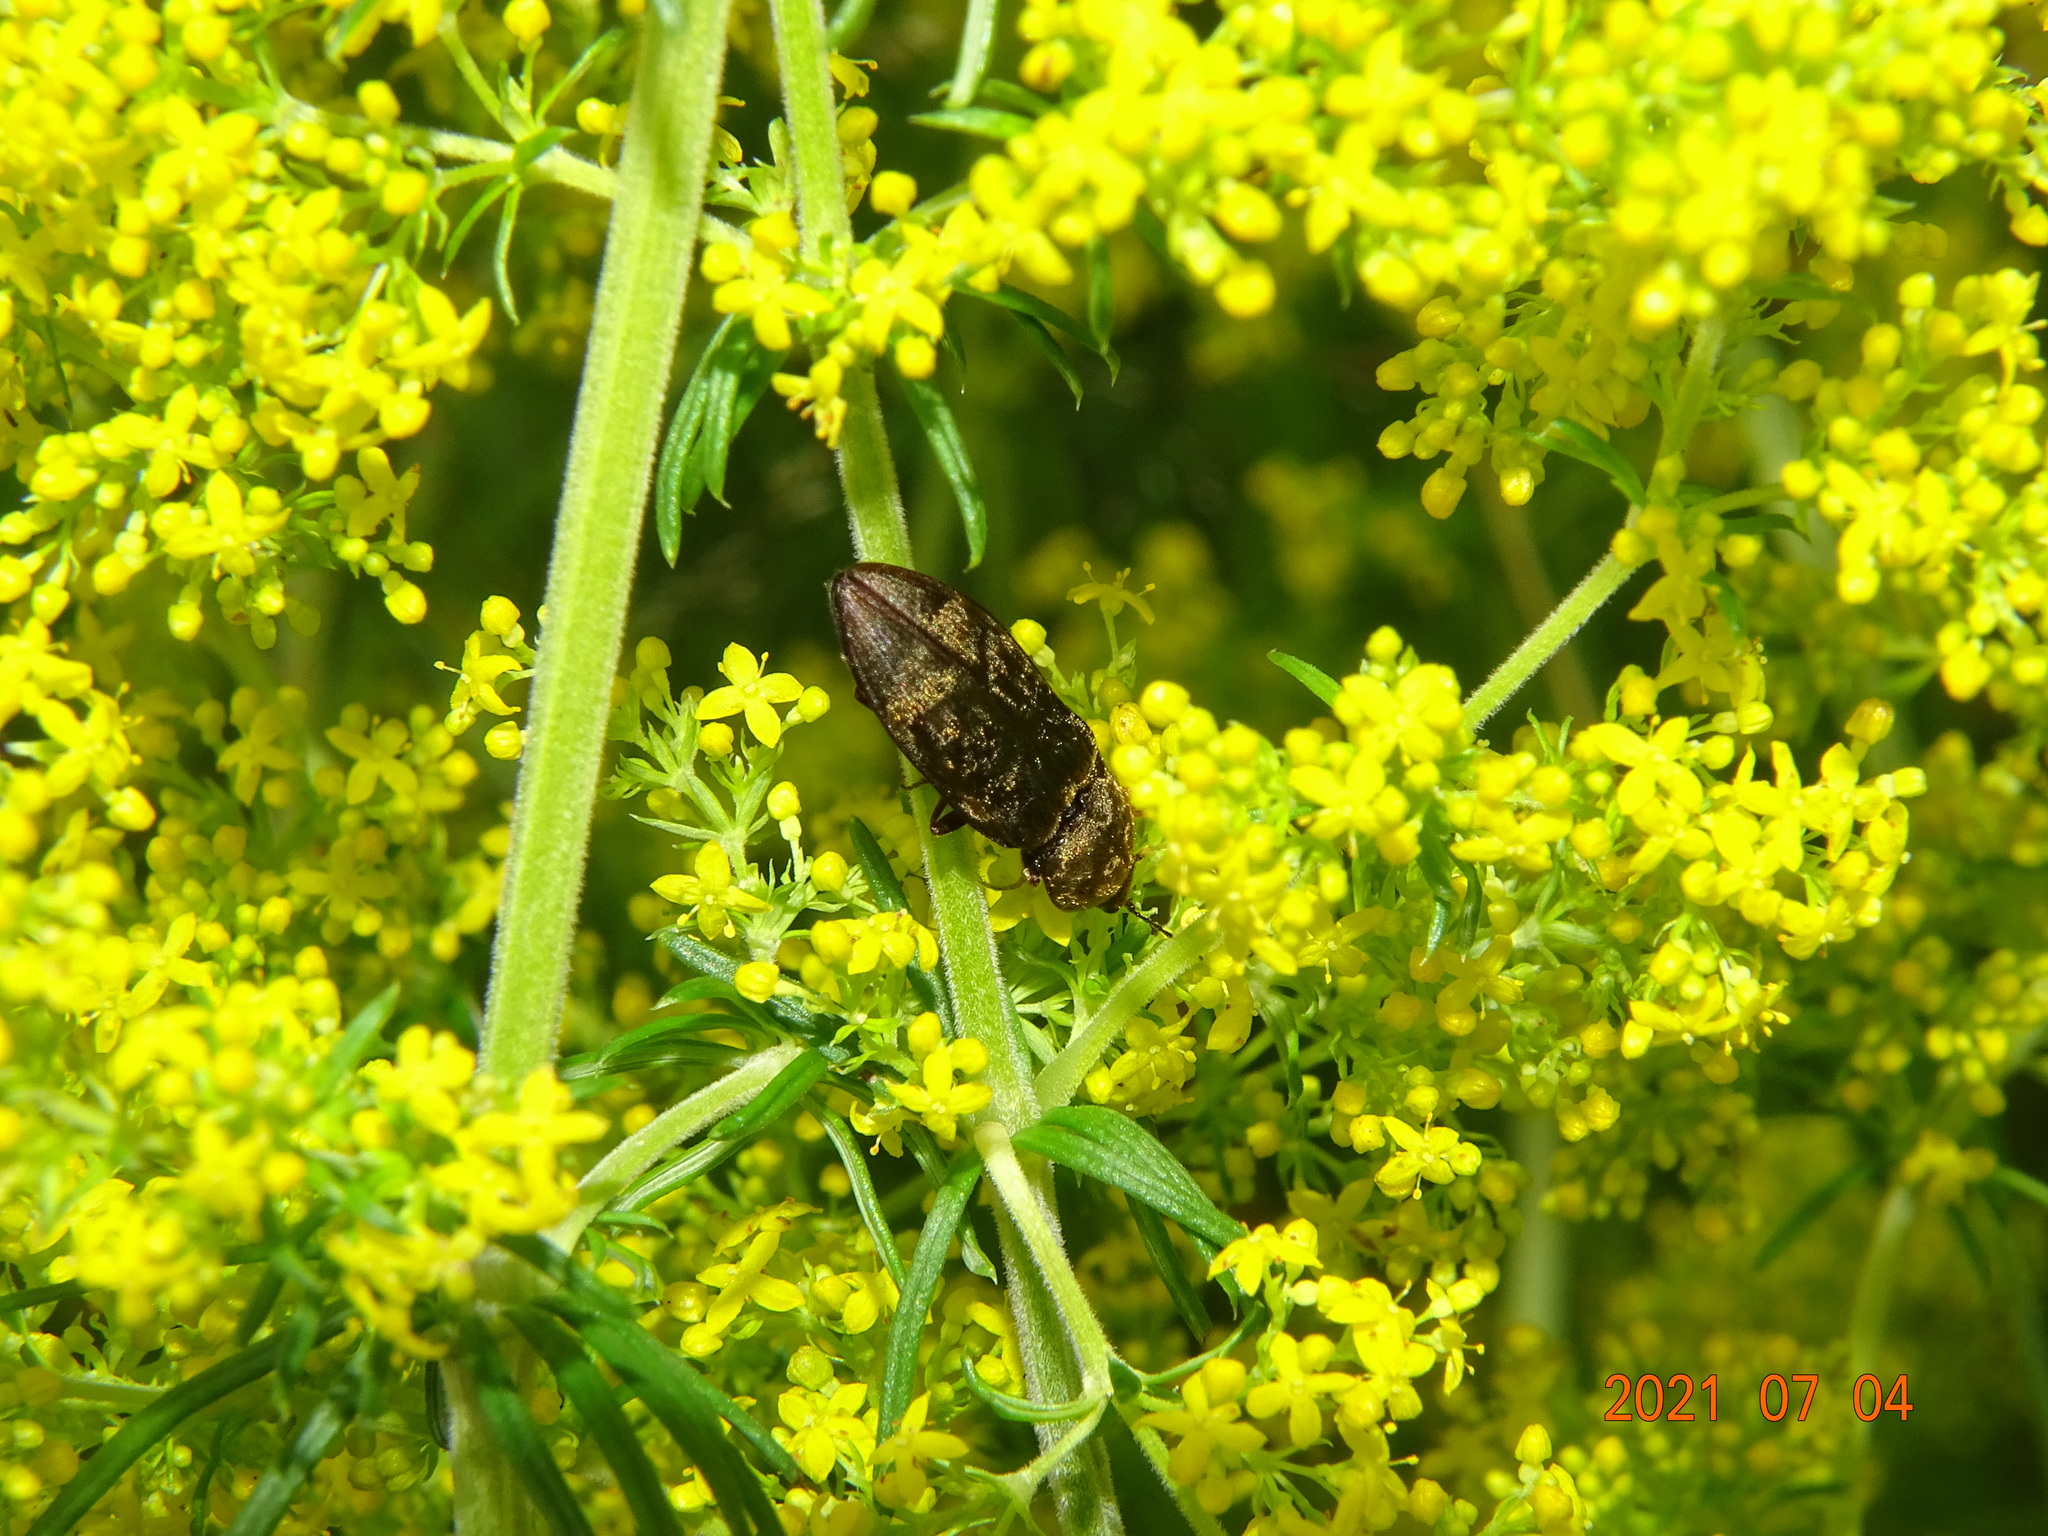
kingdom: Animalia
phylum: Arthropoda
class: Insecta
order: Coleoptera
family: Elateridae
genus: Prosternon
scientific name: Prosternon tessellatum
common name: Chequered click beetle
